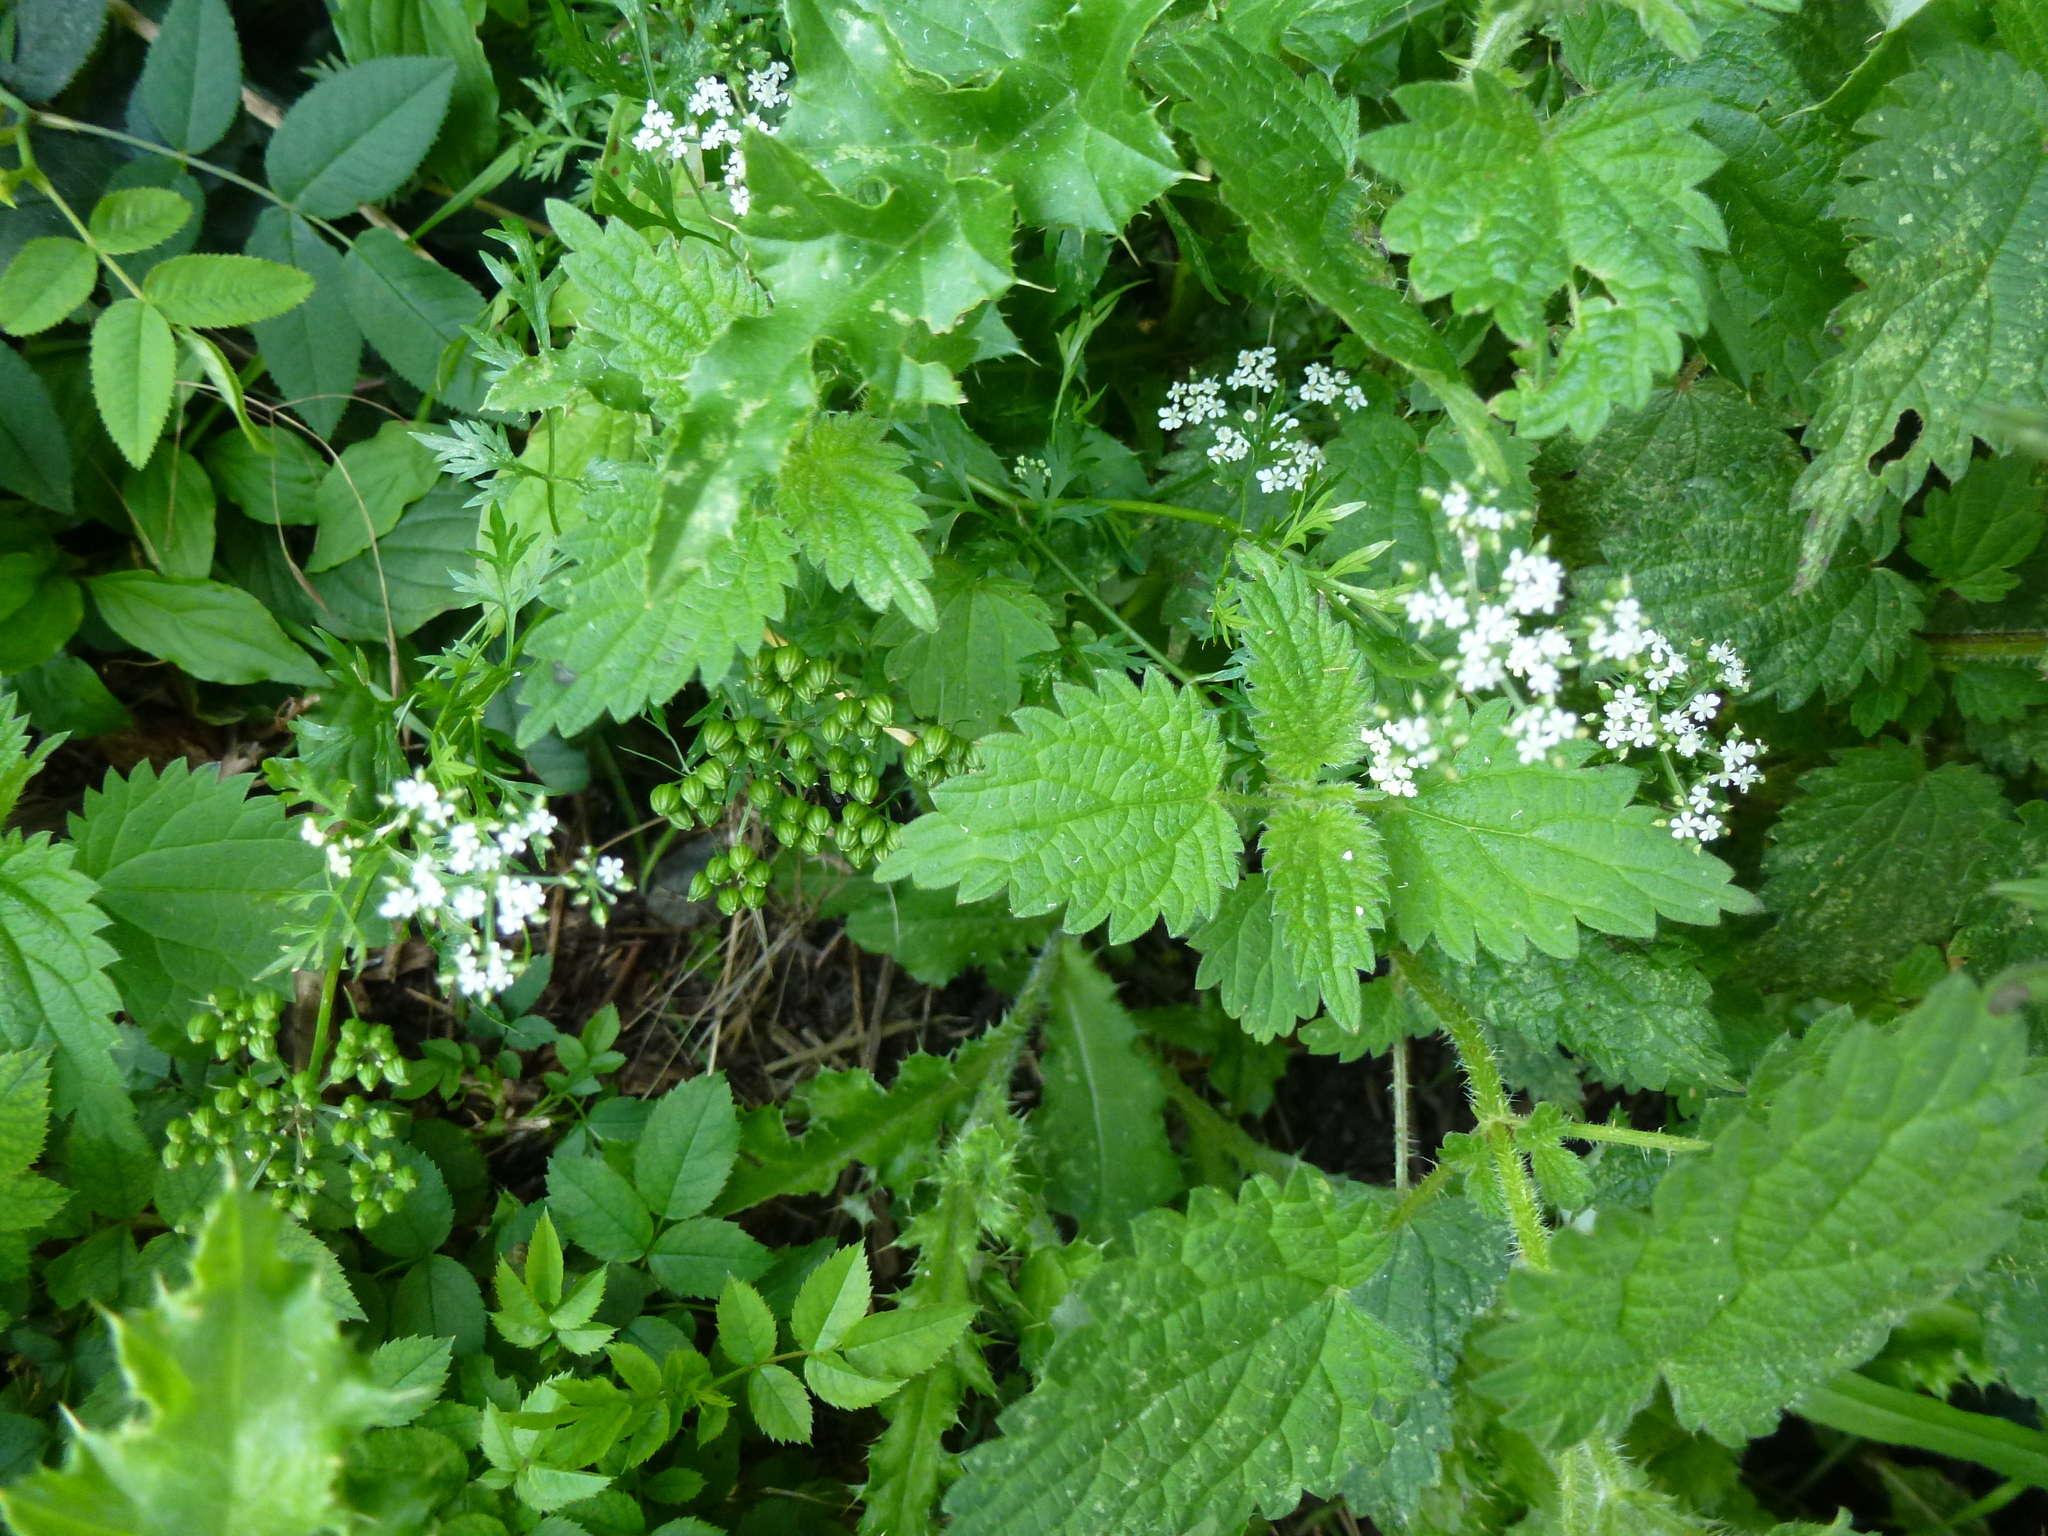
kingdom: Plantae
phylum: Tracheophyta
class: Magnoliopsida
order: Apiales
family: Apiaceae
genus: Torilis
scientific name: Torilis japonica
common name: Upright hedge-parsley
